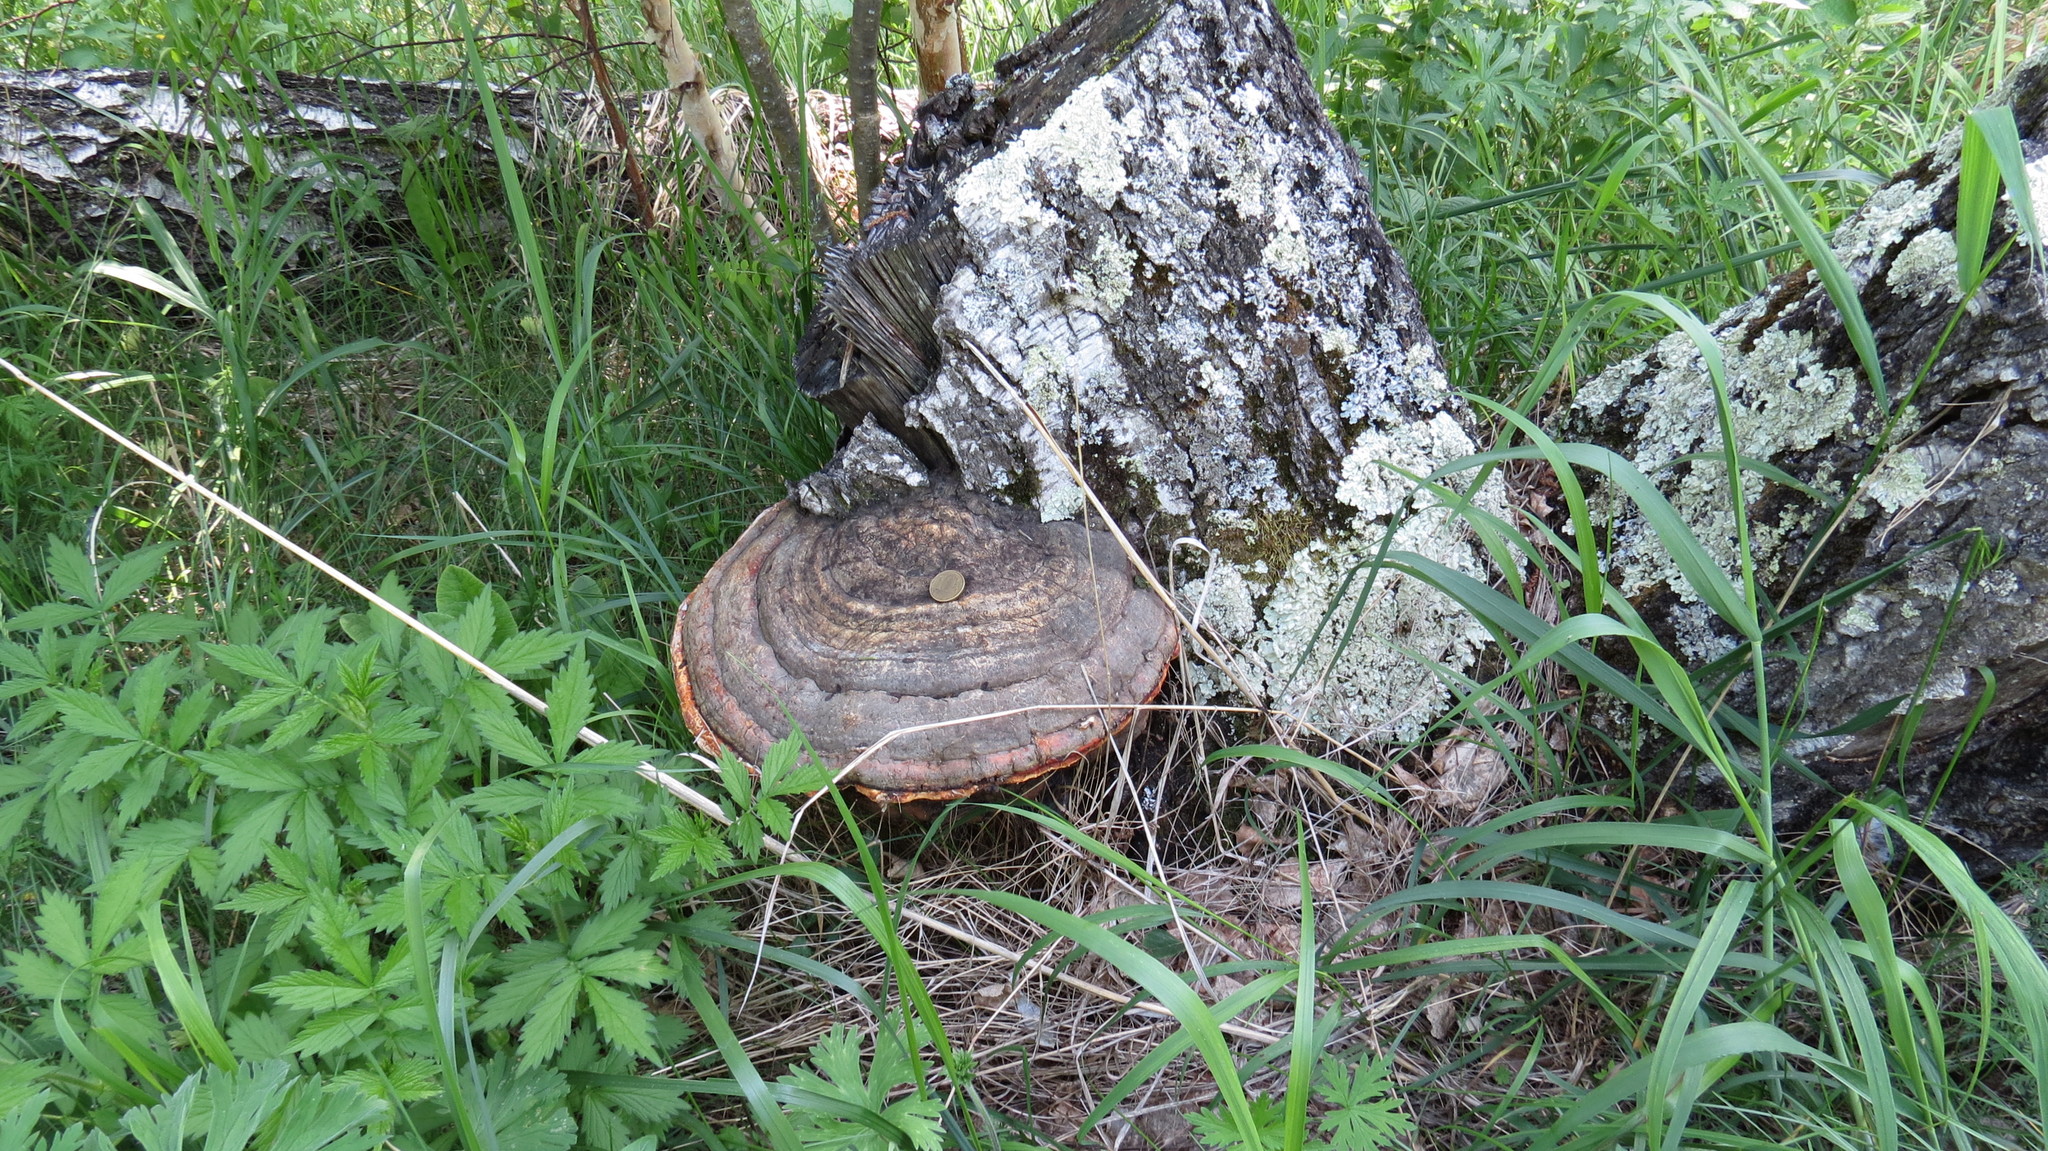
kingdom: Fungi
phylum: Basidiomycota
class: Agaricomycetes
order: Polyporales
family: Fomitopsidaceae
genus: Fomitopsis
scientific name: Fomitopsis pinicola
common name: Red-belted bracket
